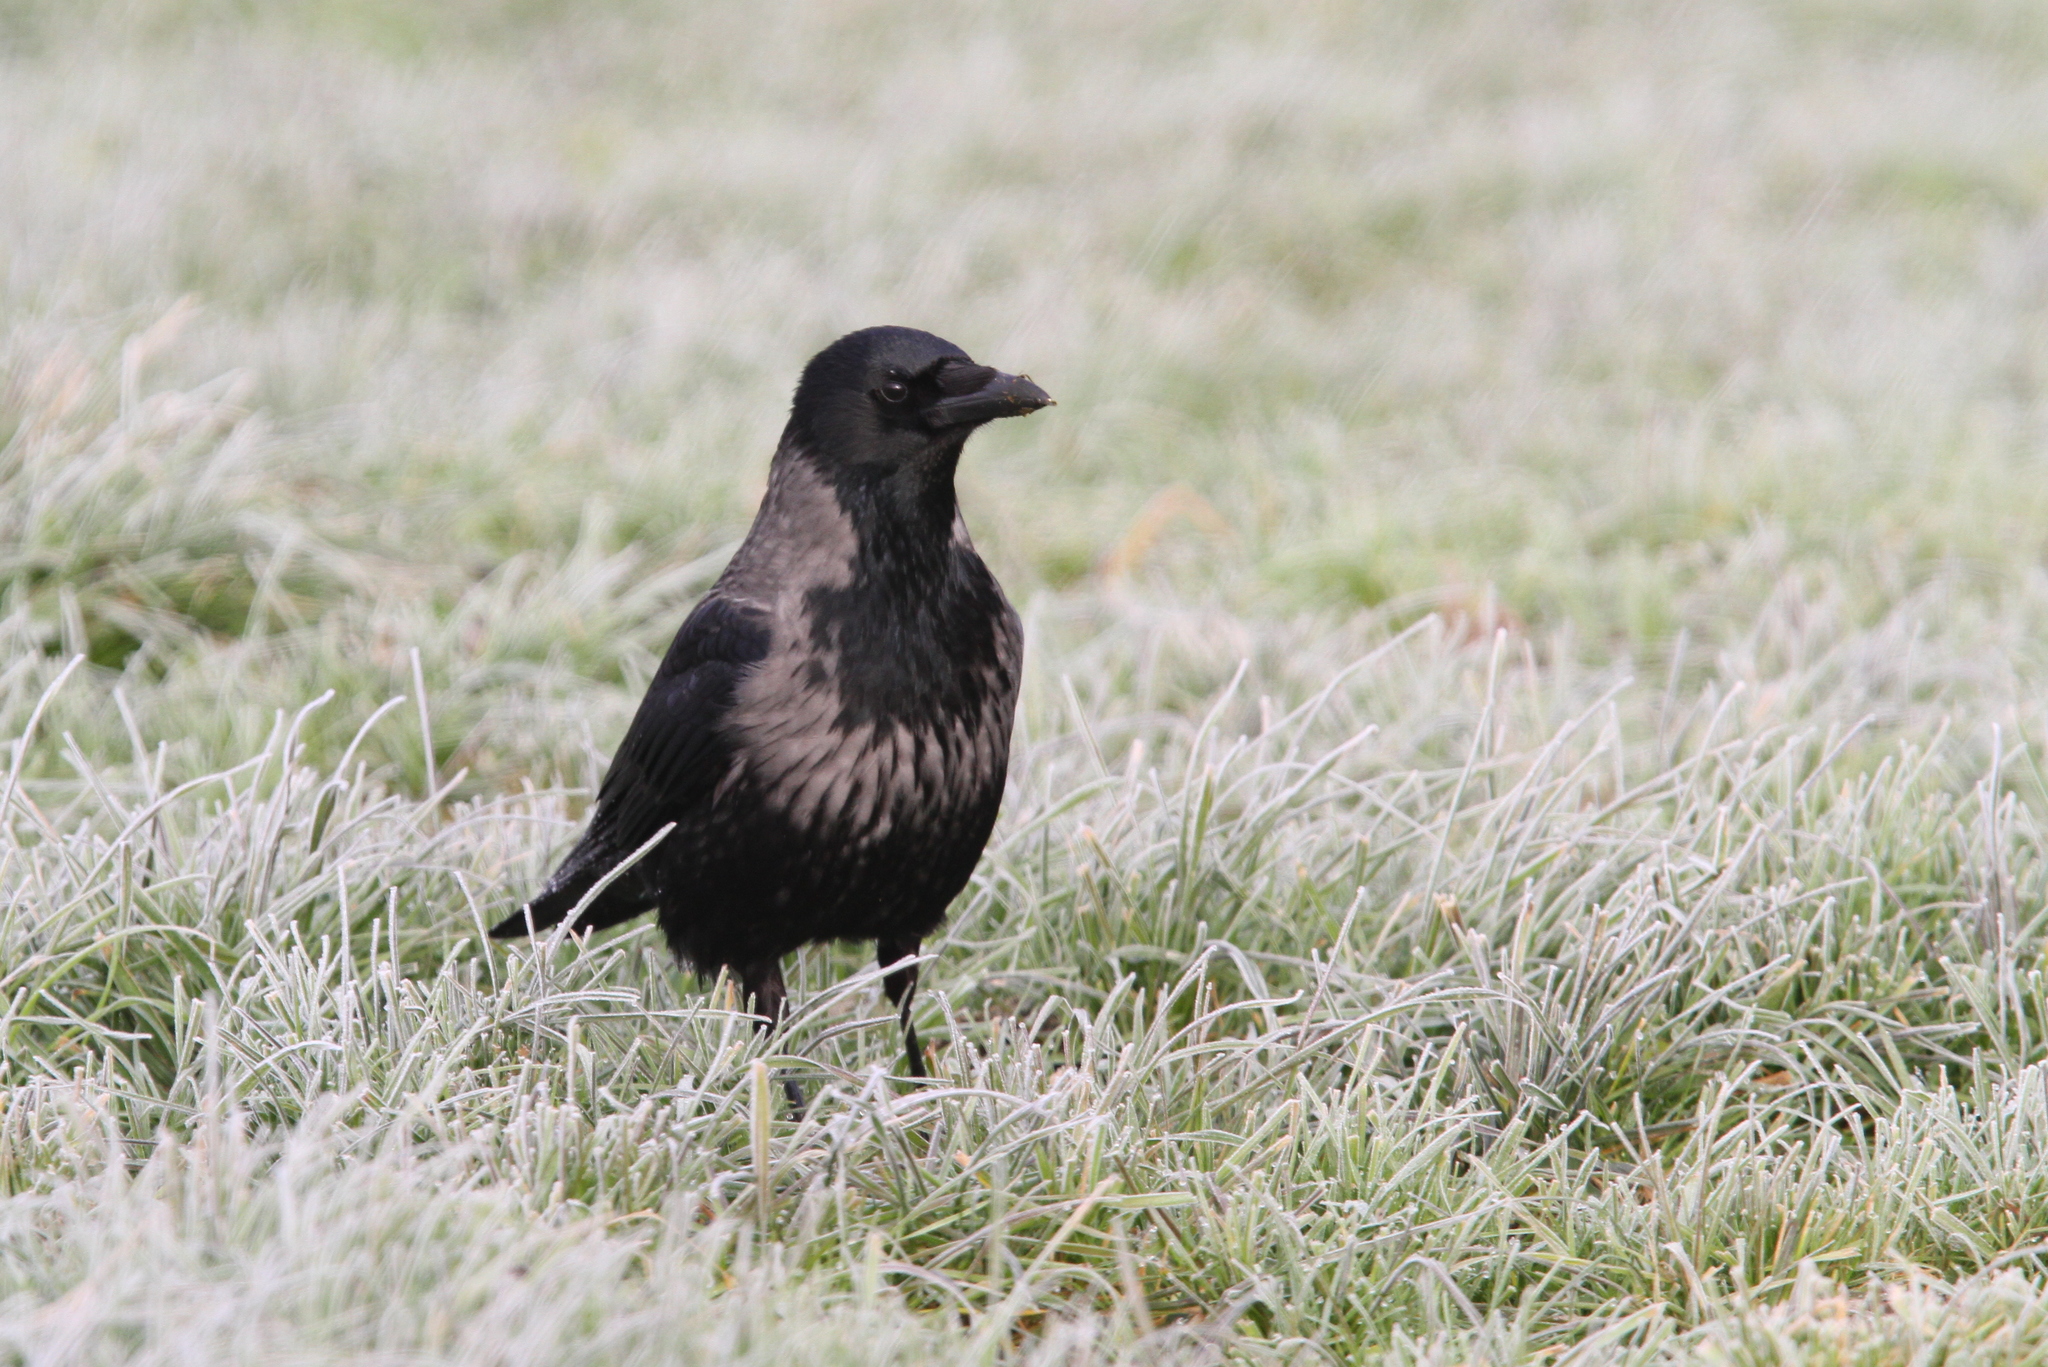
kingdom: Animalia
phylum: Chordata
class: Aves
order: Passeriformes
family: Corvidae
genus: Corvus
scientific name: Corvus
